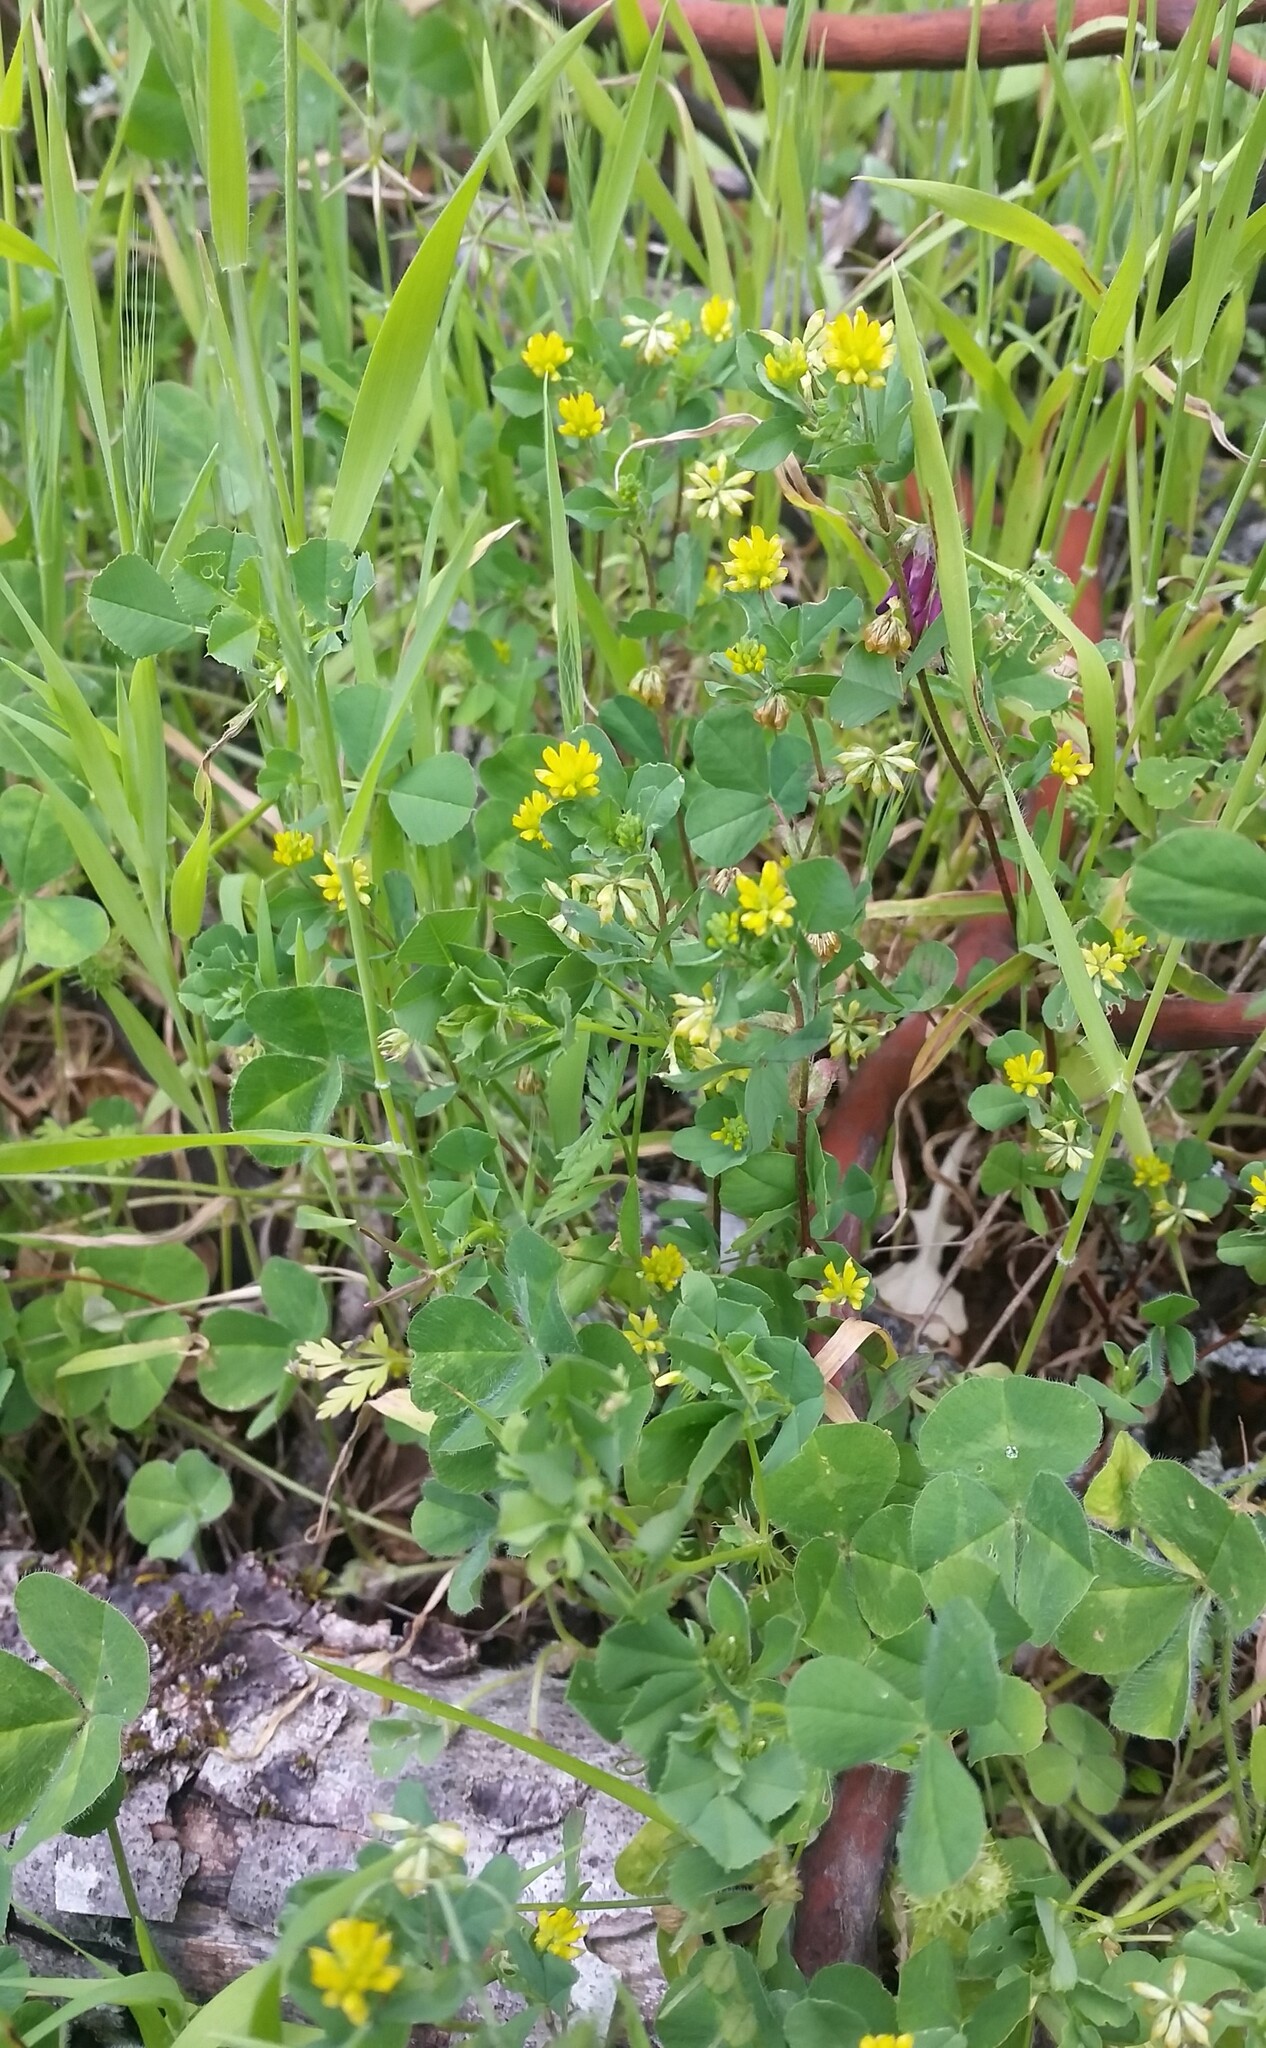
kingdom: Plantae
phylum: Tracheophyta
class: Magnoliopsida
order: Fabales
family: Fabaceae
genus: Trifolium
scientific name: Trifolium dubium
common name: Suckling clover
